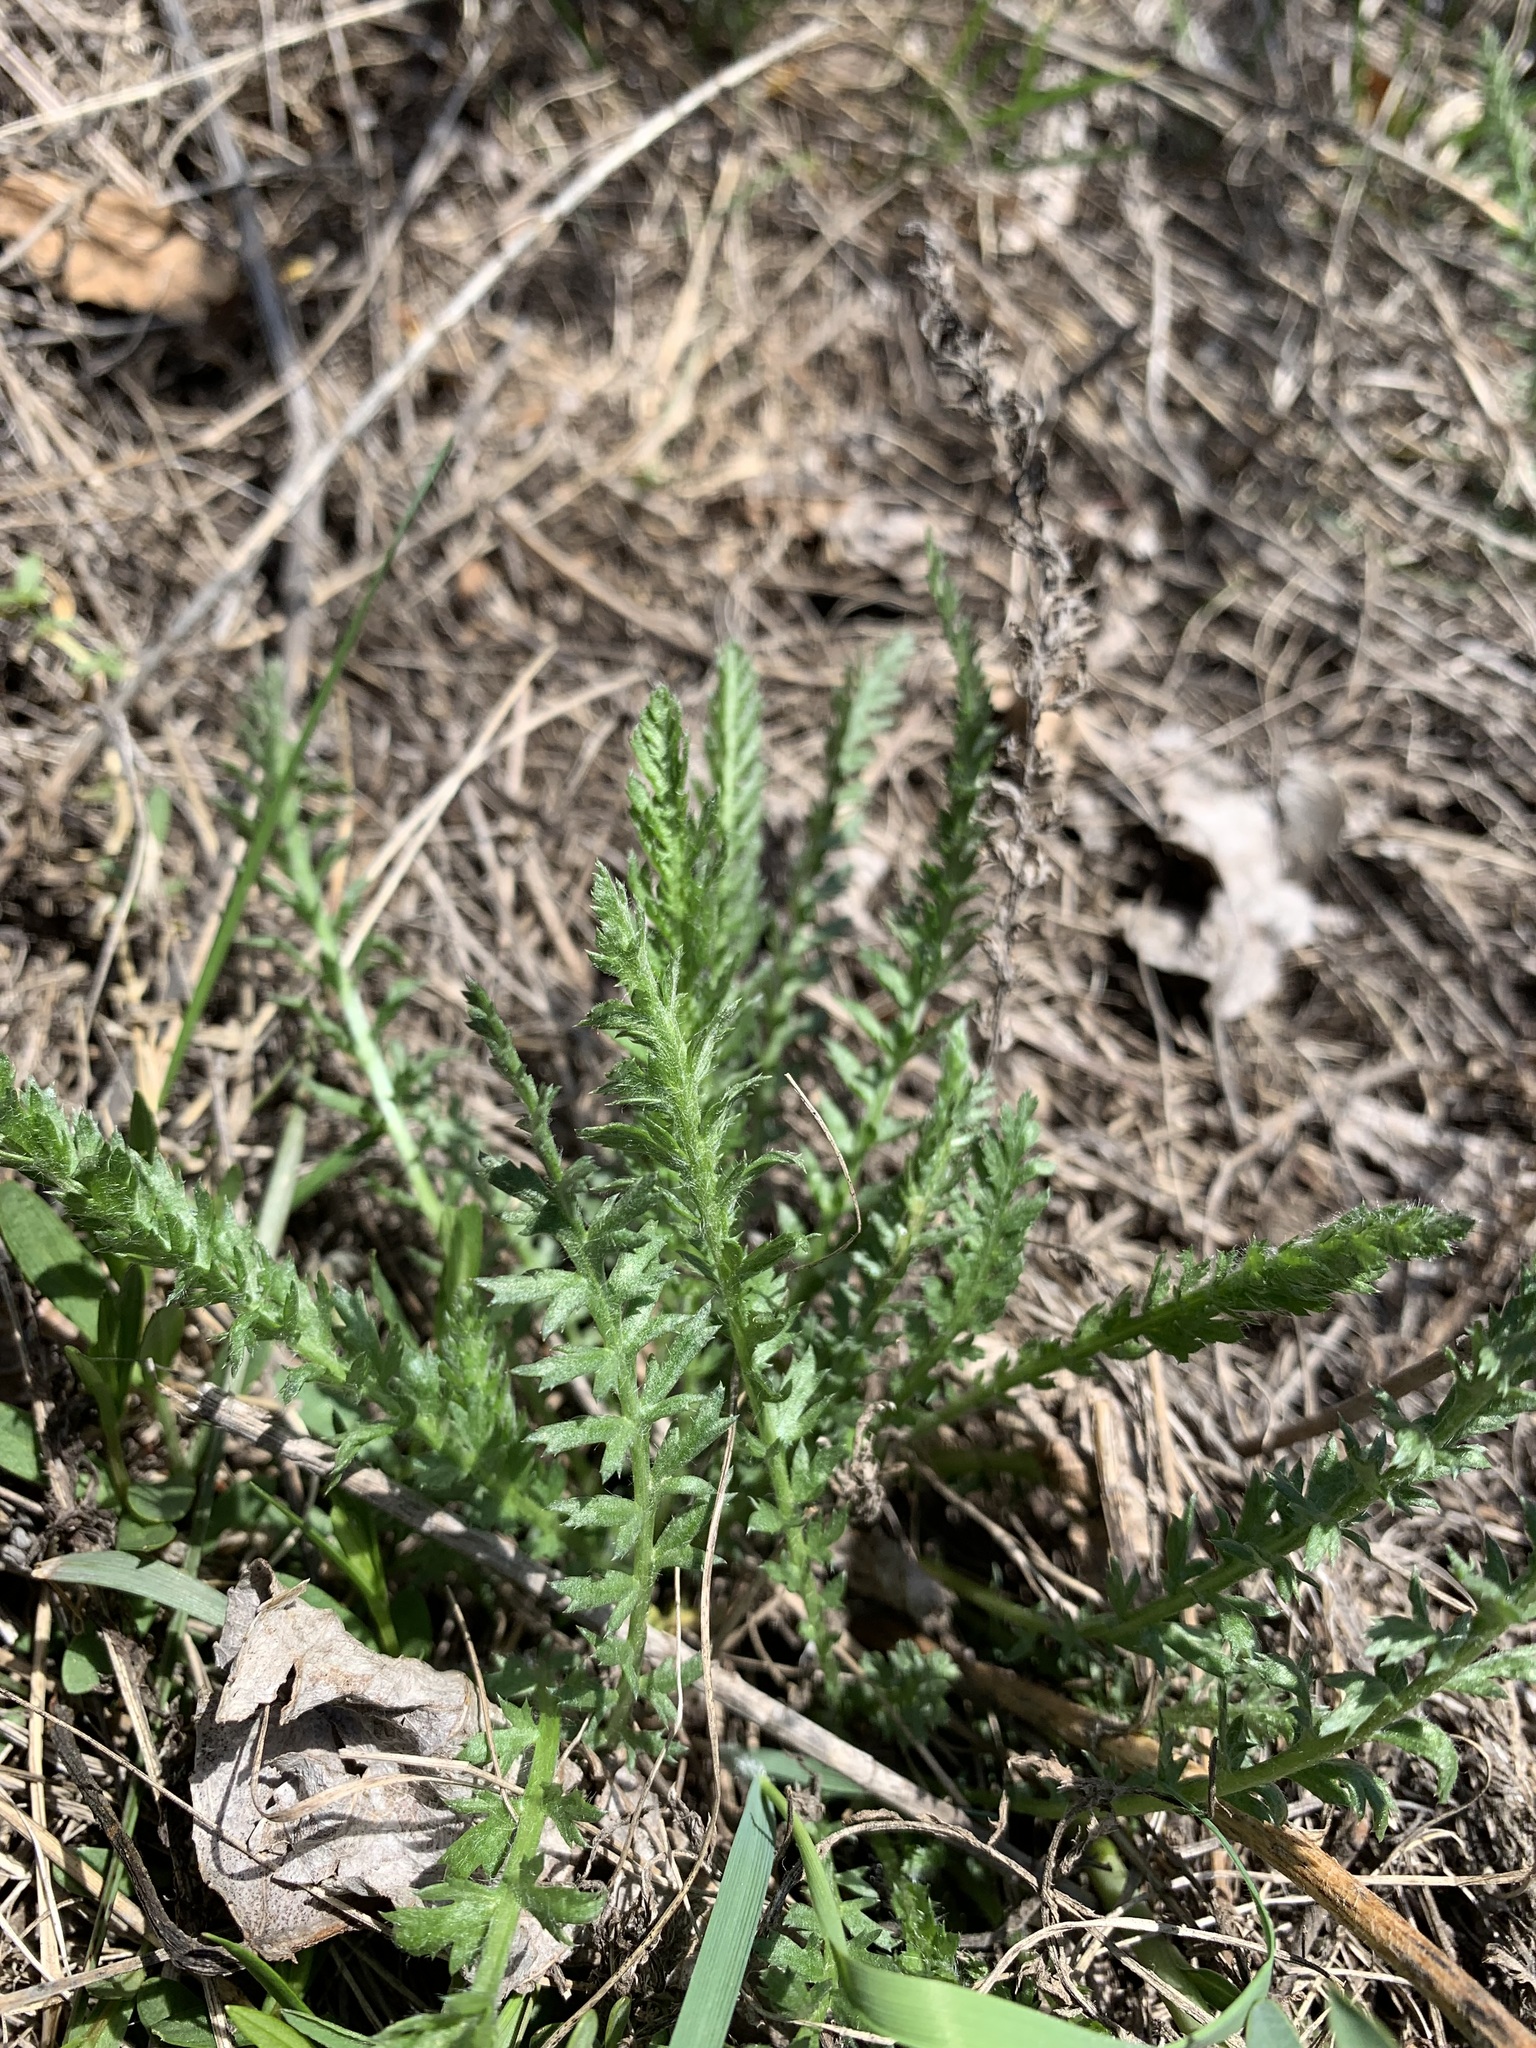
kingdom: Plantae
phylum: Tracheophyta
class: Magnoliopsida
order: Asterales
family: Asteraceae
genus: Achillea
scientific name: Achillea millefolium
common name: Yarrow
